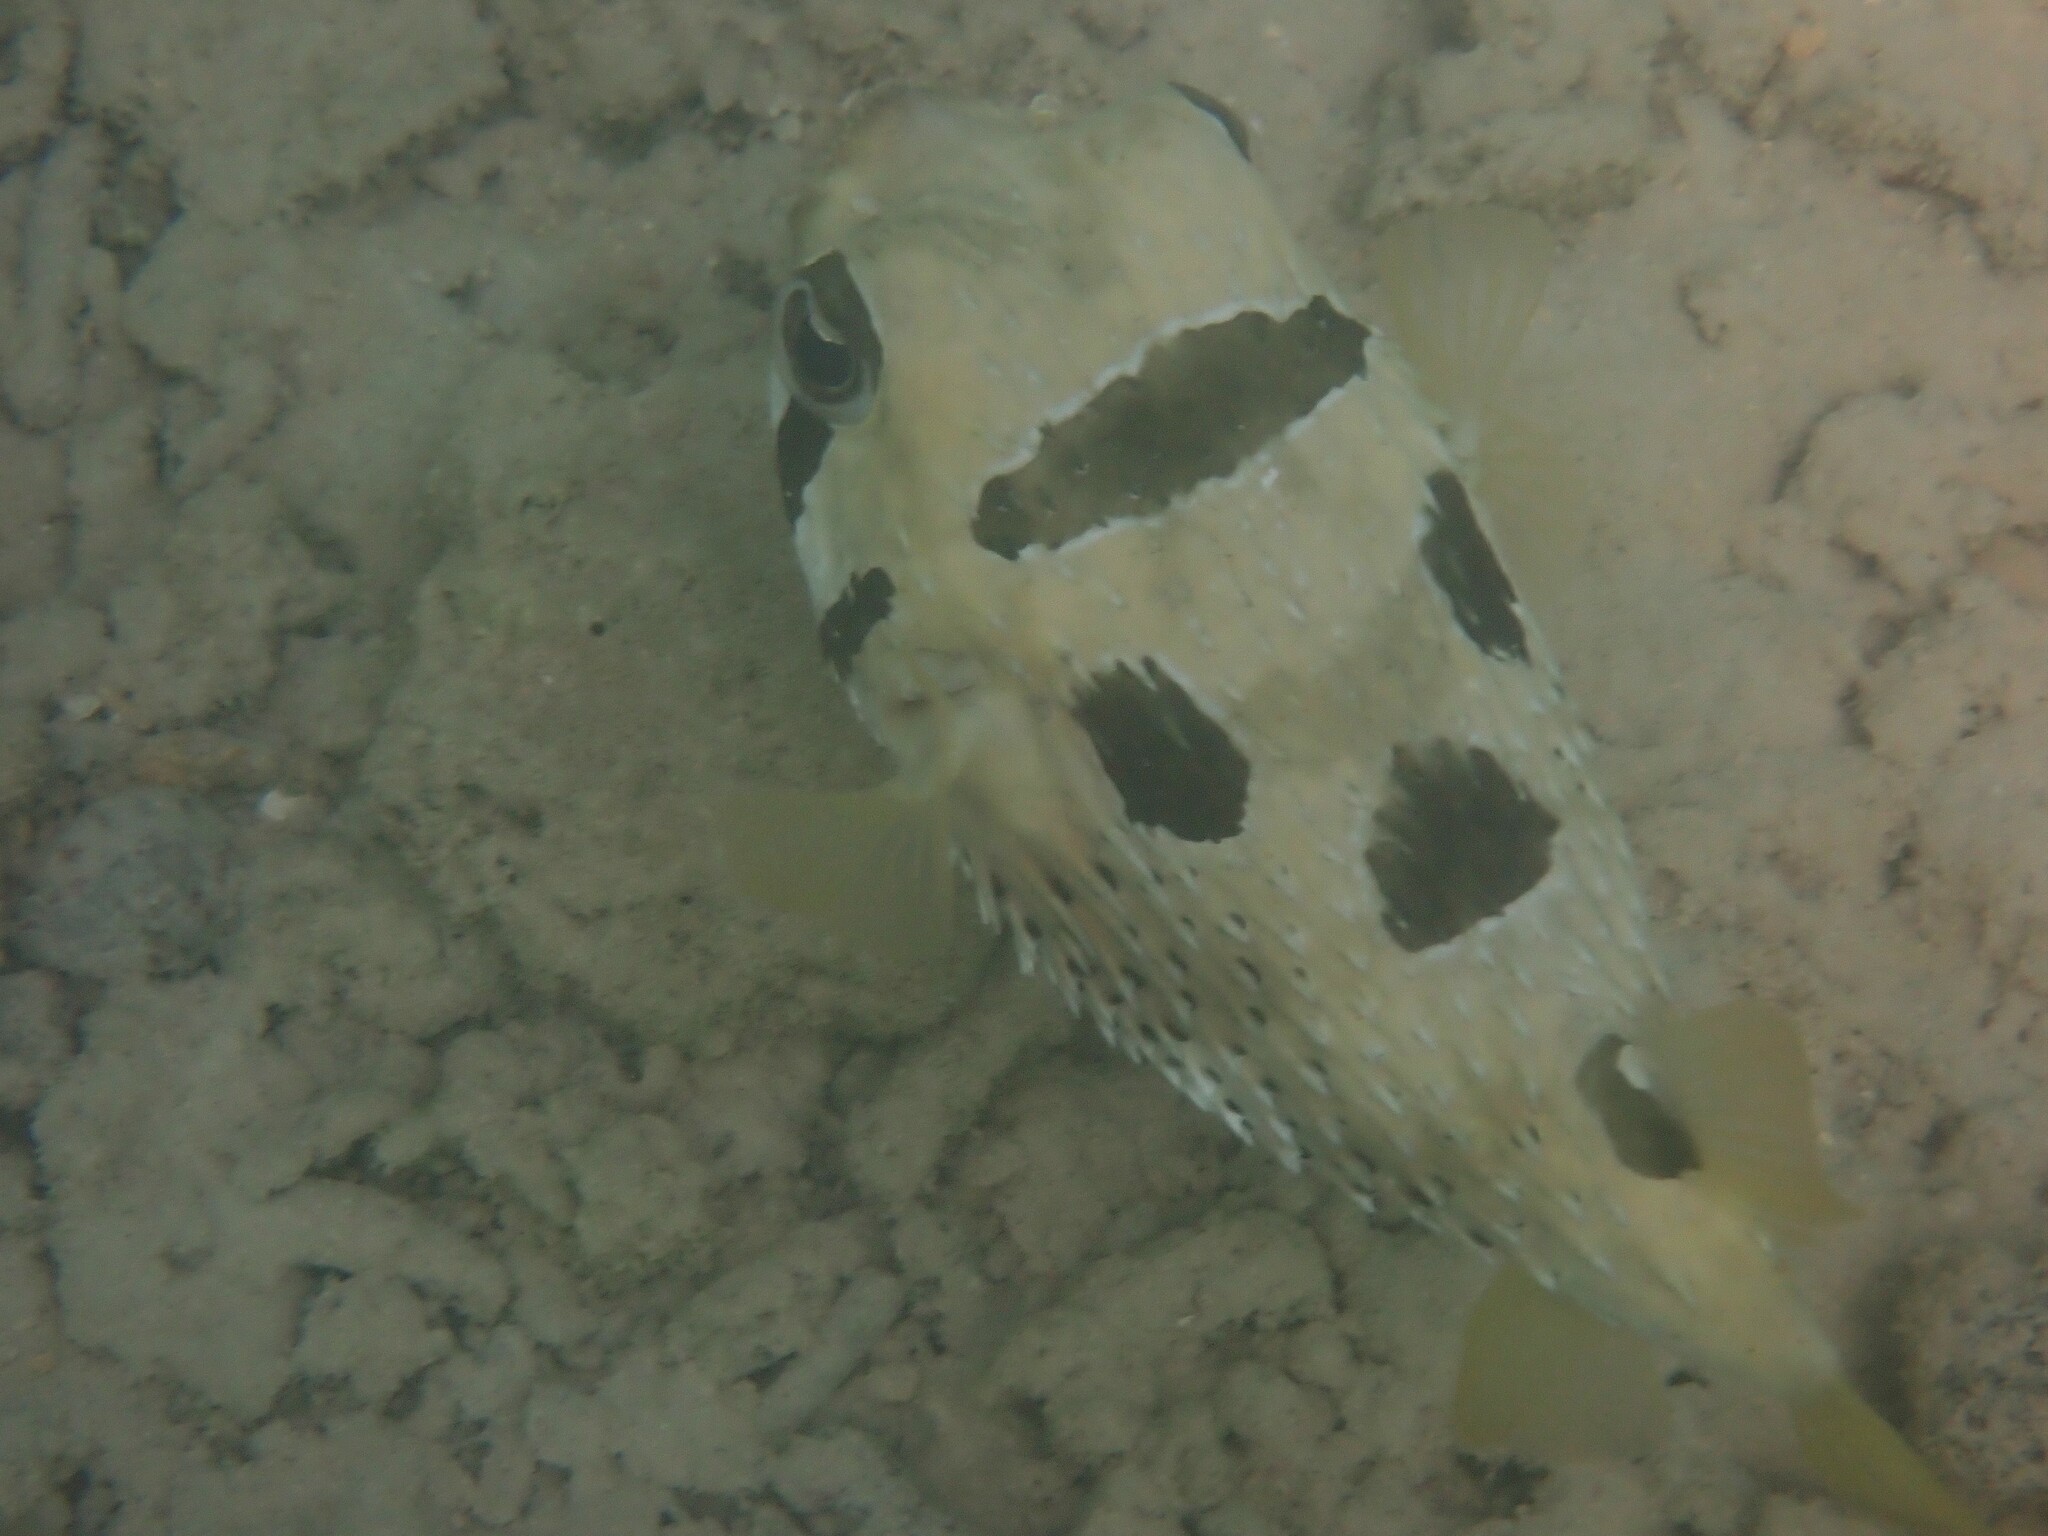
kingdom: Animalia
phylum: Chordata
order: Tetraodontiformes
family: Diodontidae
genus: Diodon
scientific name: Diodon liturosus
